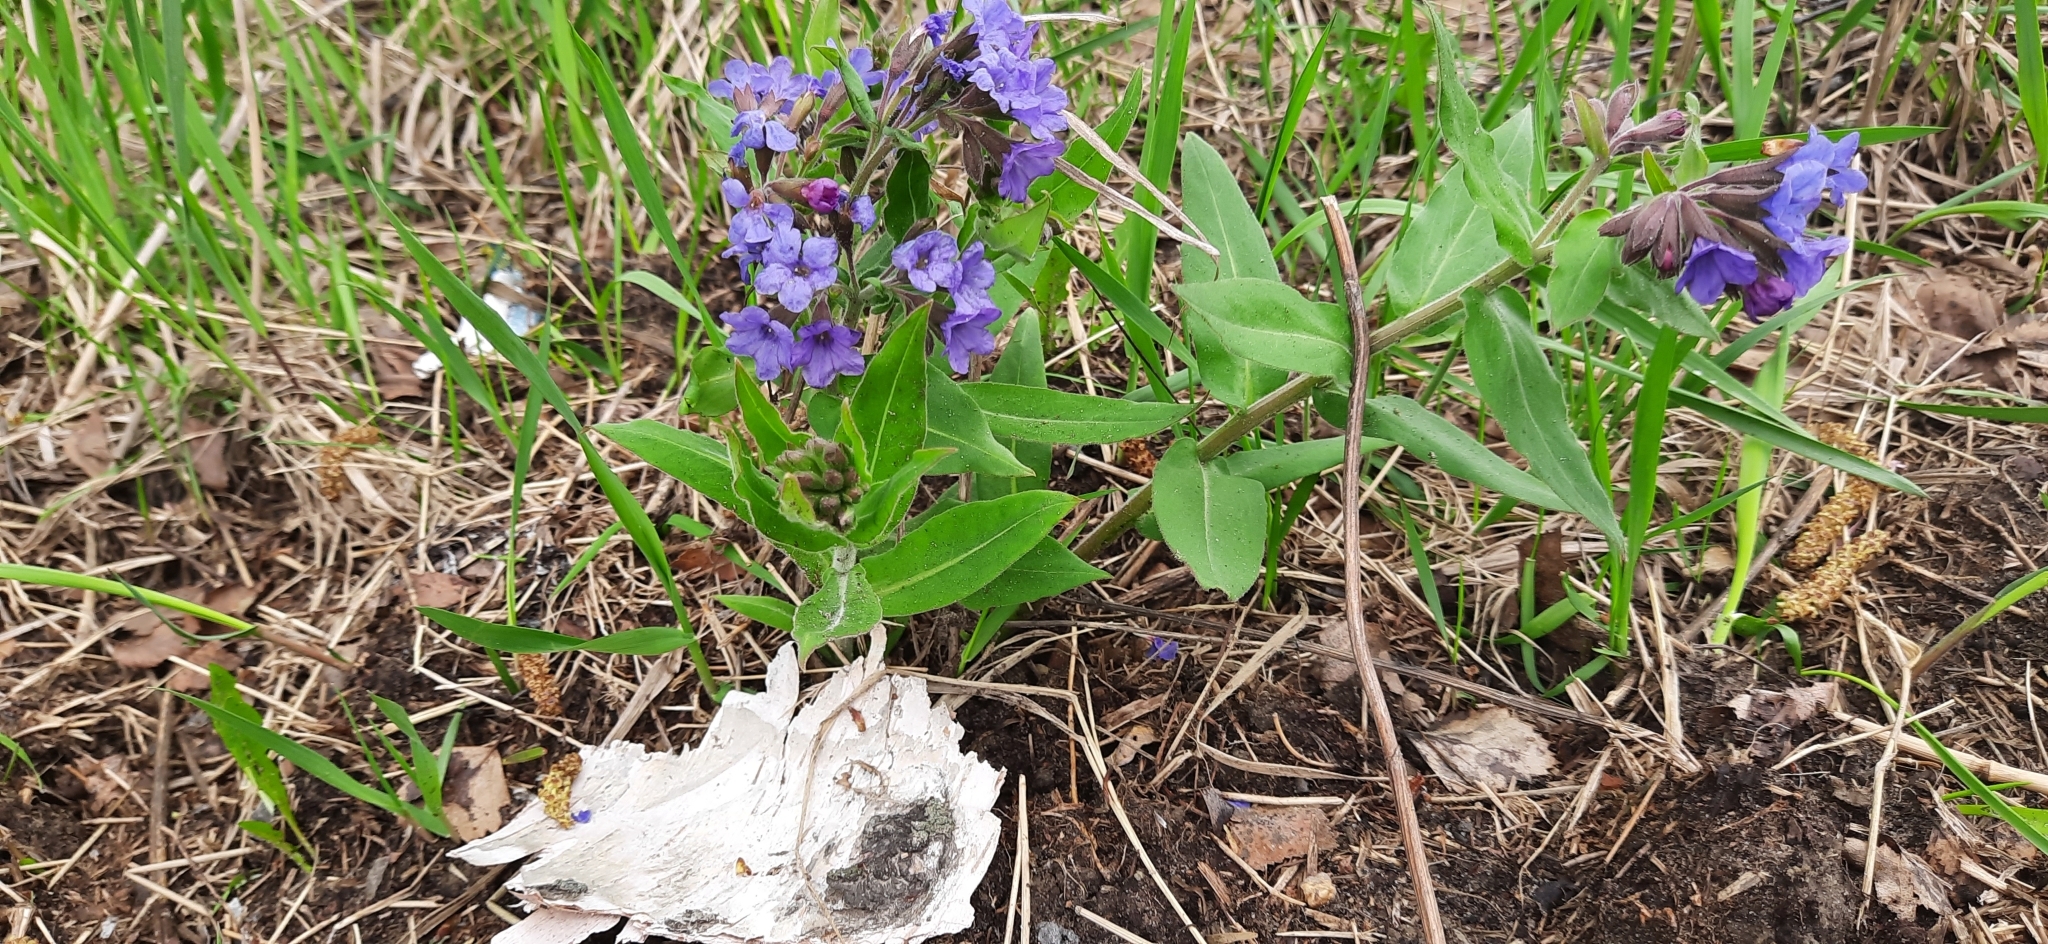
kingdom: Plantae
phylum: Tracheophyta
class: Magnoliopsida
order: Boraginales
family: Boraginaceae
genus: Pulmonaria
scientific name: Pulmonaria mollis
